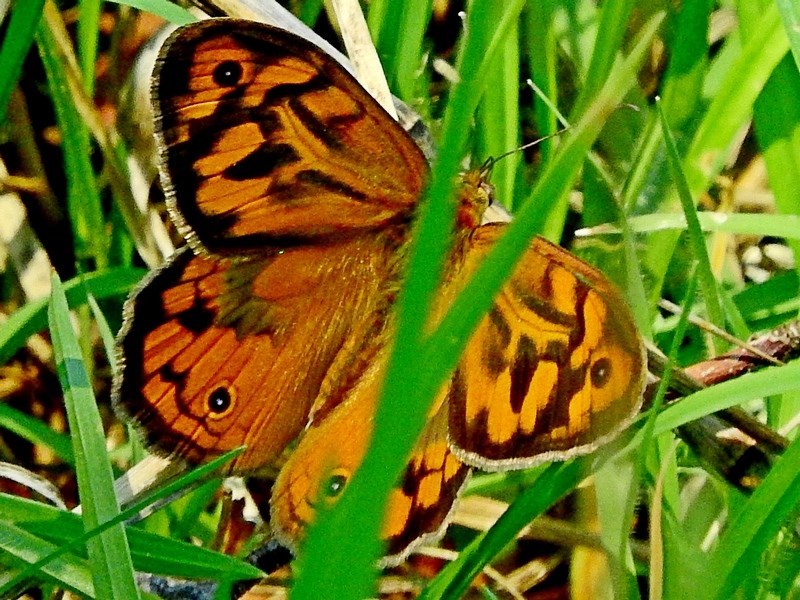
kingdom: Animalia
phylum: Arthropoda
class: Insecta
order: Lepidoptera
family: Nymphalidae
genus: Heteronympha
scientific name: Heteronympha merope
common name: Common brown
